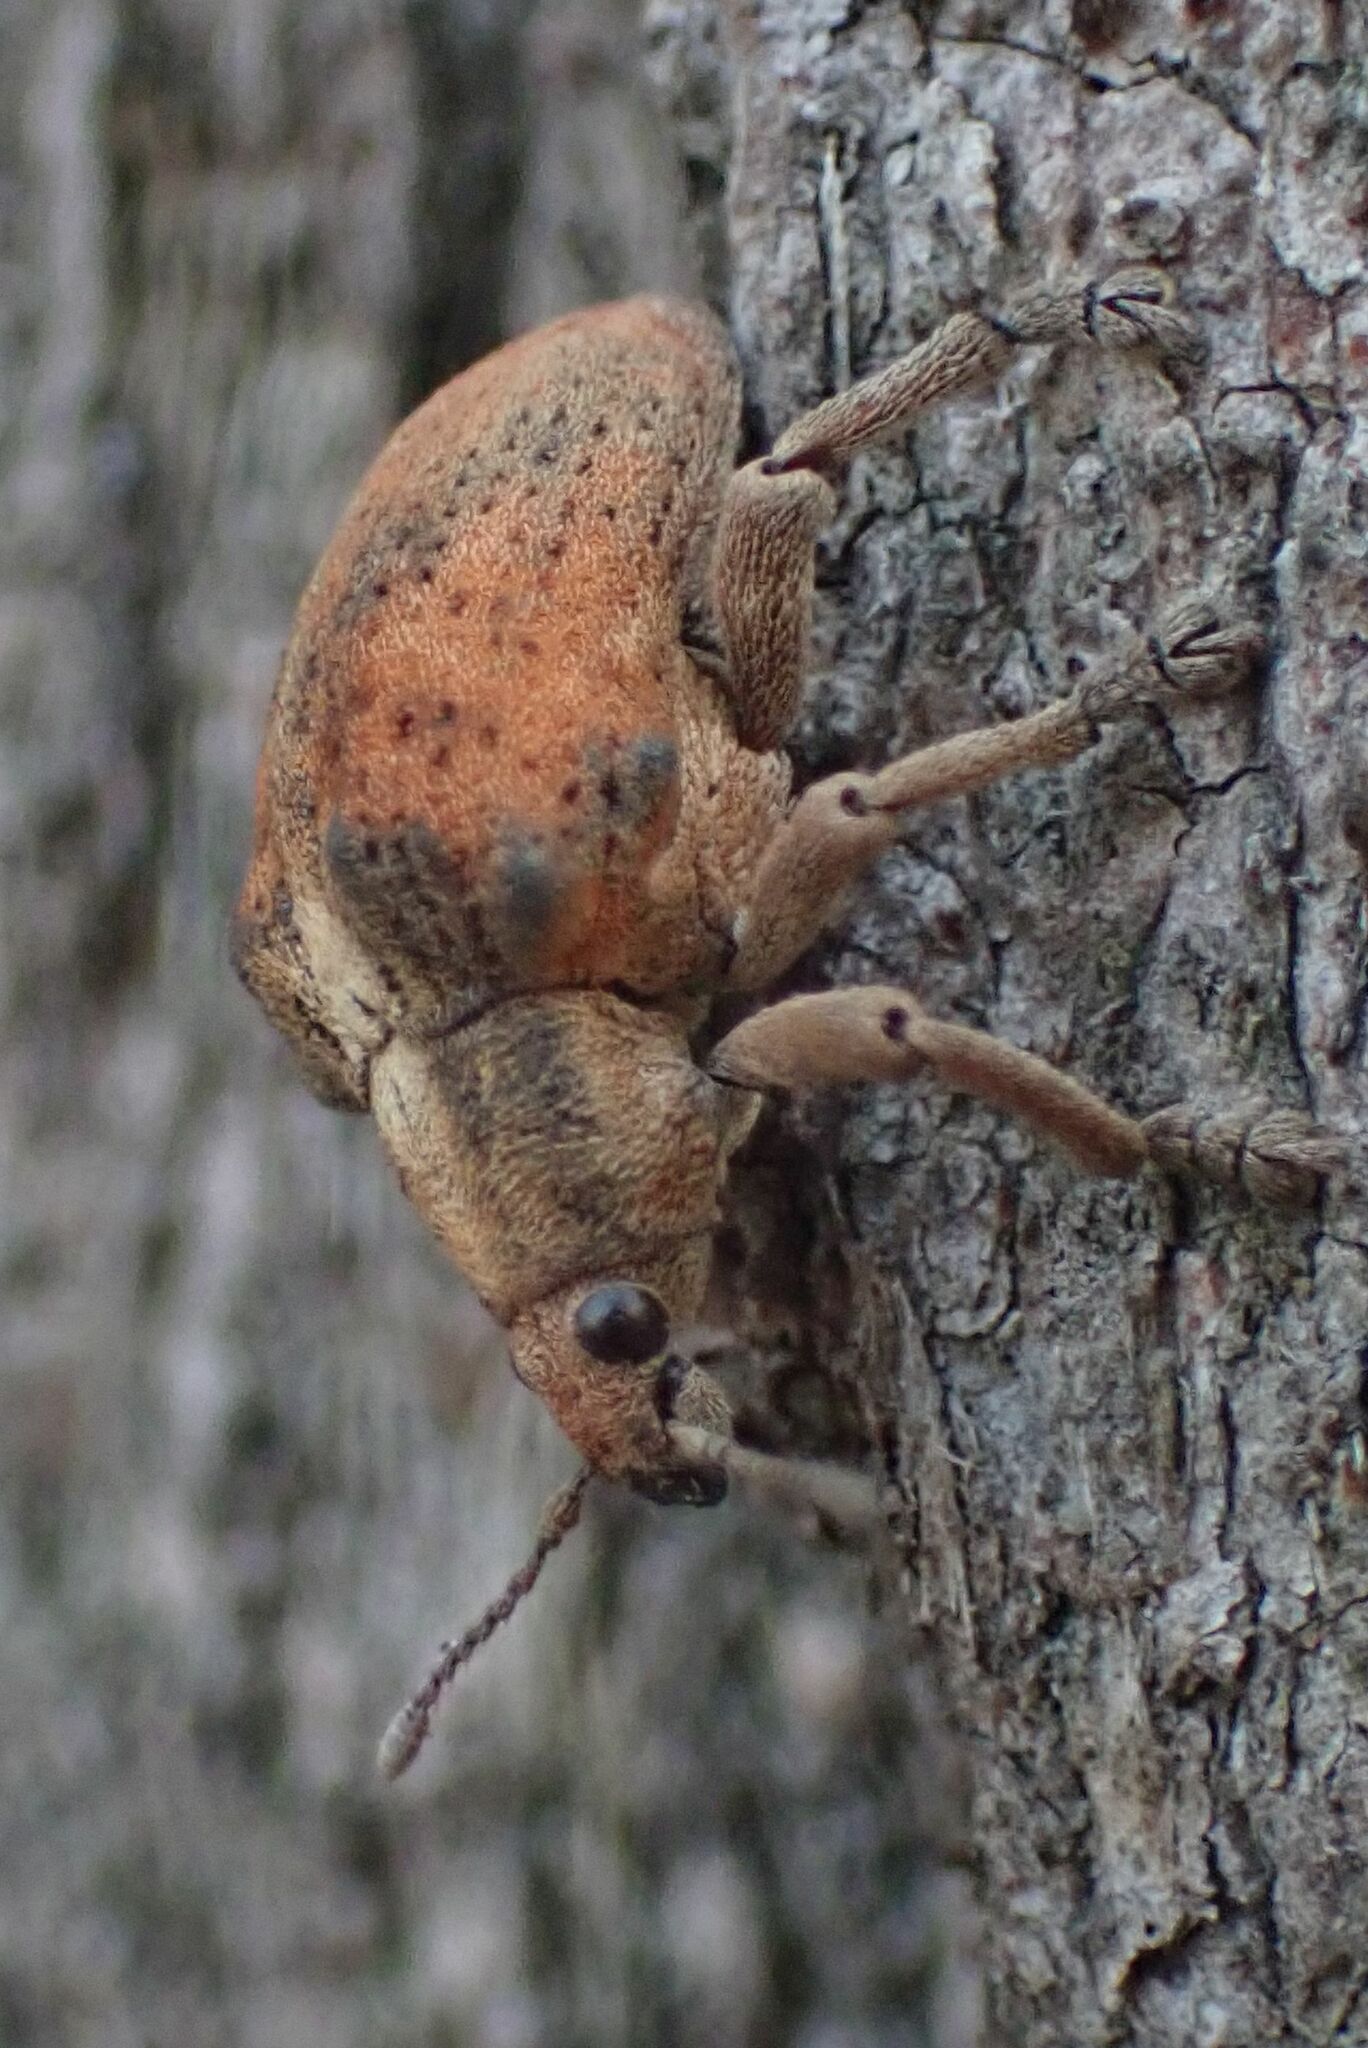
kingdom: Animalia
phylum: Arthropoda
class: Insecta
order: Coleoptera
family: Curculionidae
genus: Gonipterus
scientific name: Gonipterus
